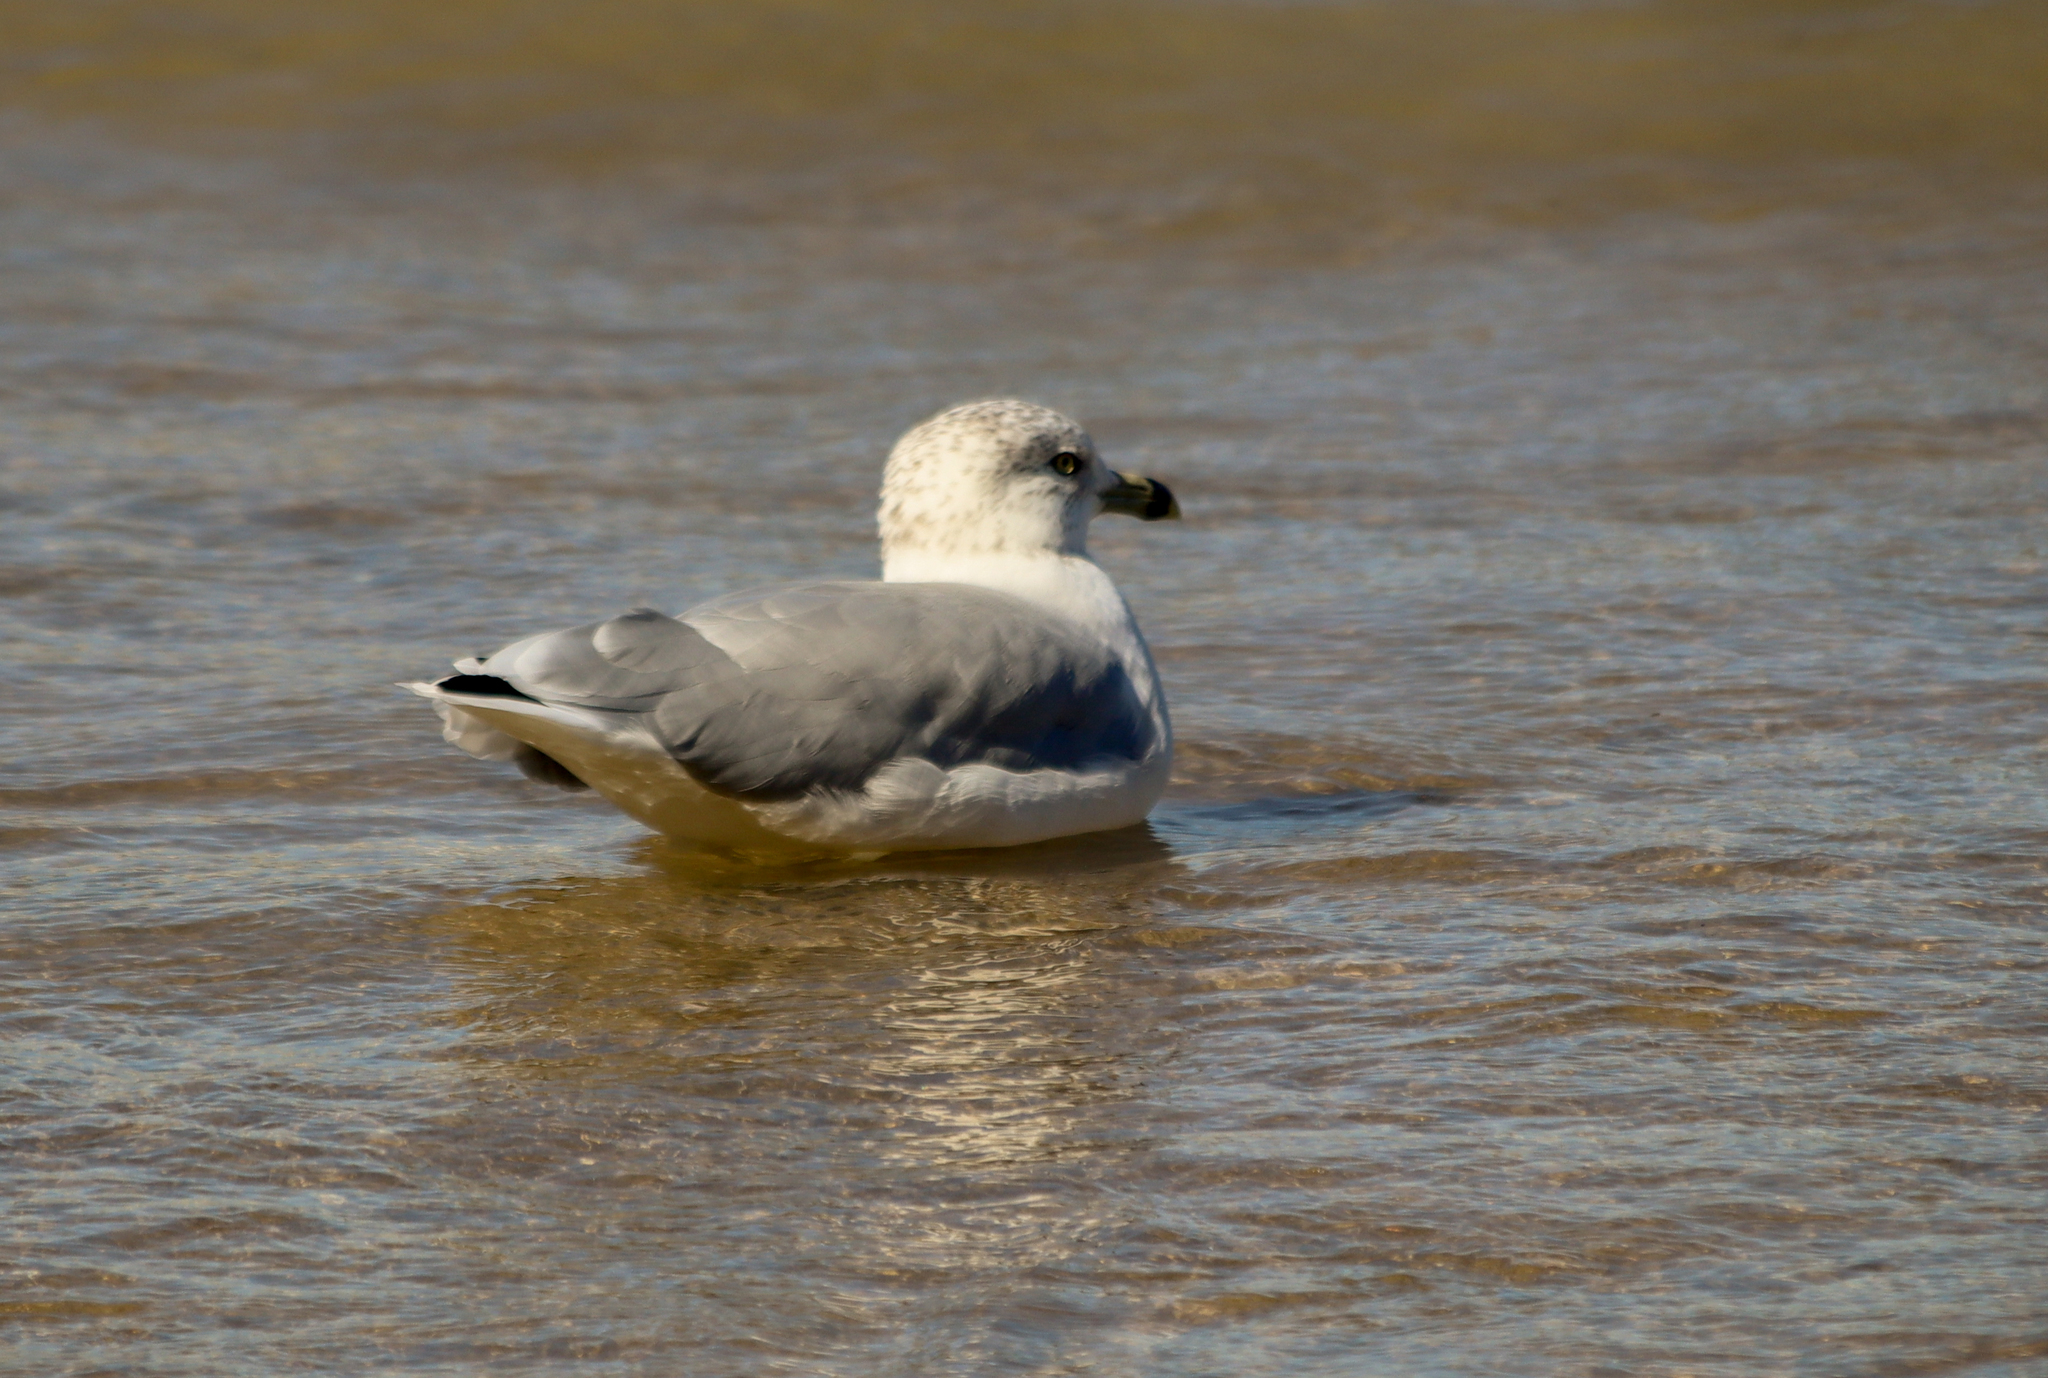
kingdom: Animalia
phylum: Chordata
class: Aves
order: Charadriiformes
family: Laridae
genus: Larus
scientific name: Larus delawarensis
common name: Ring-billed gull
